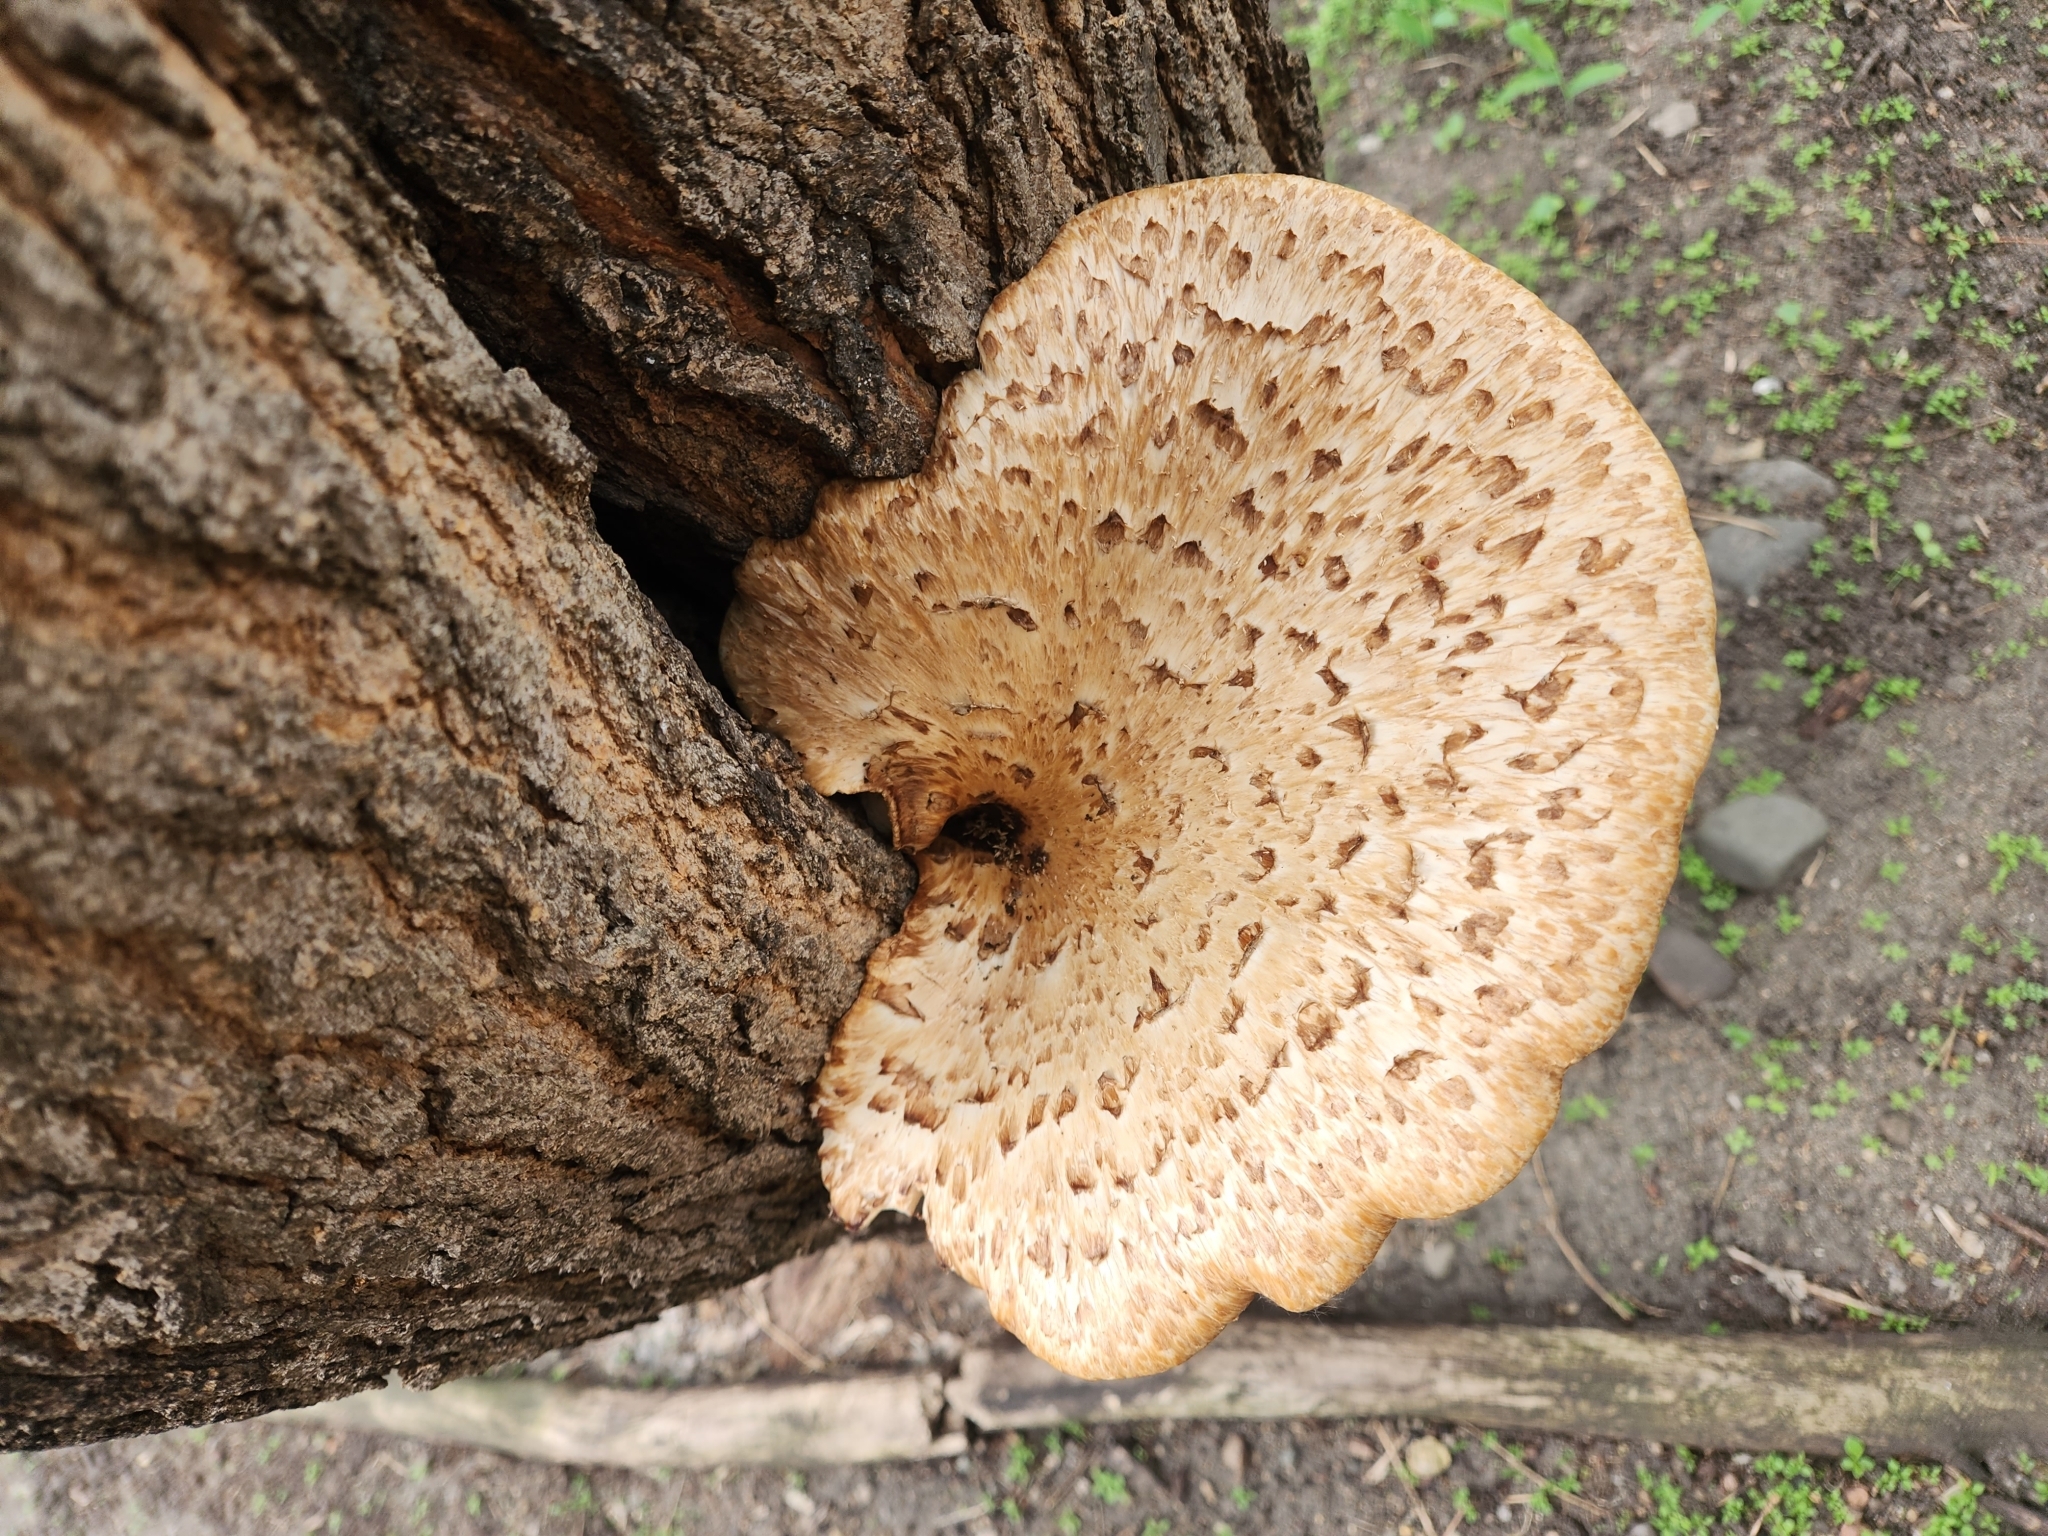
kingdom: Fungi
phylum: Basidiomycota
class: Agaricomycetes
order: Polyporales
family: Polyporaceae
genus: Cerioporus
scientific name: Cerioporus squamosus
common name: Dryad's saddle
